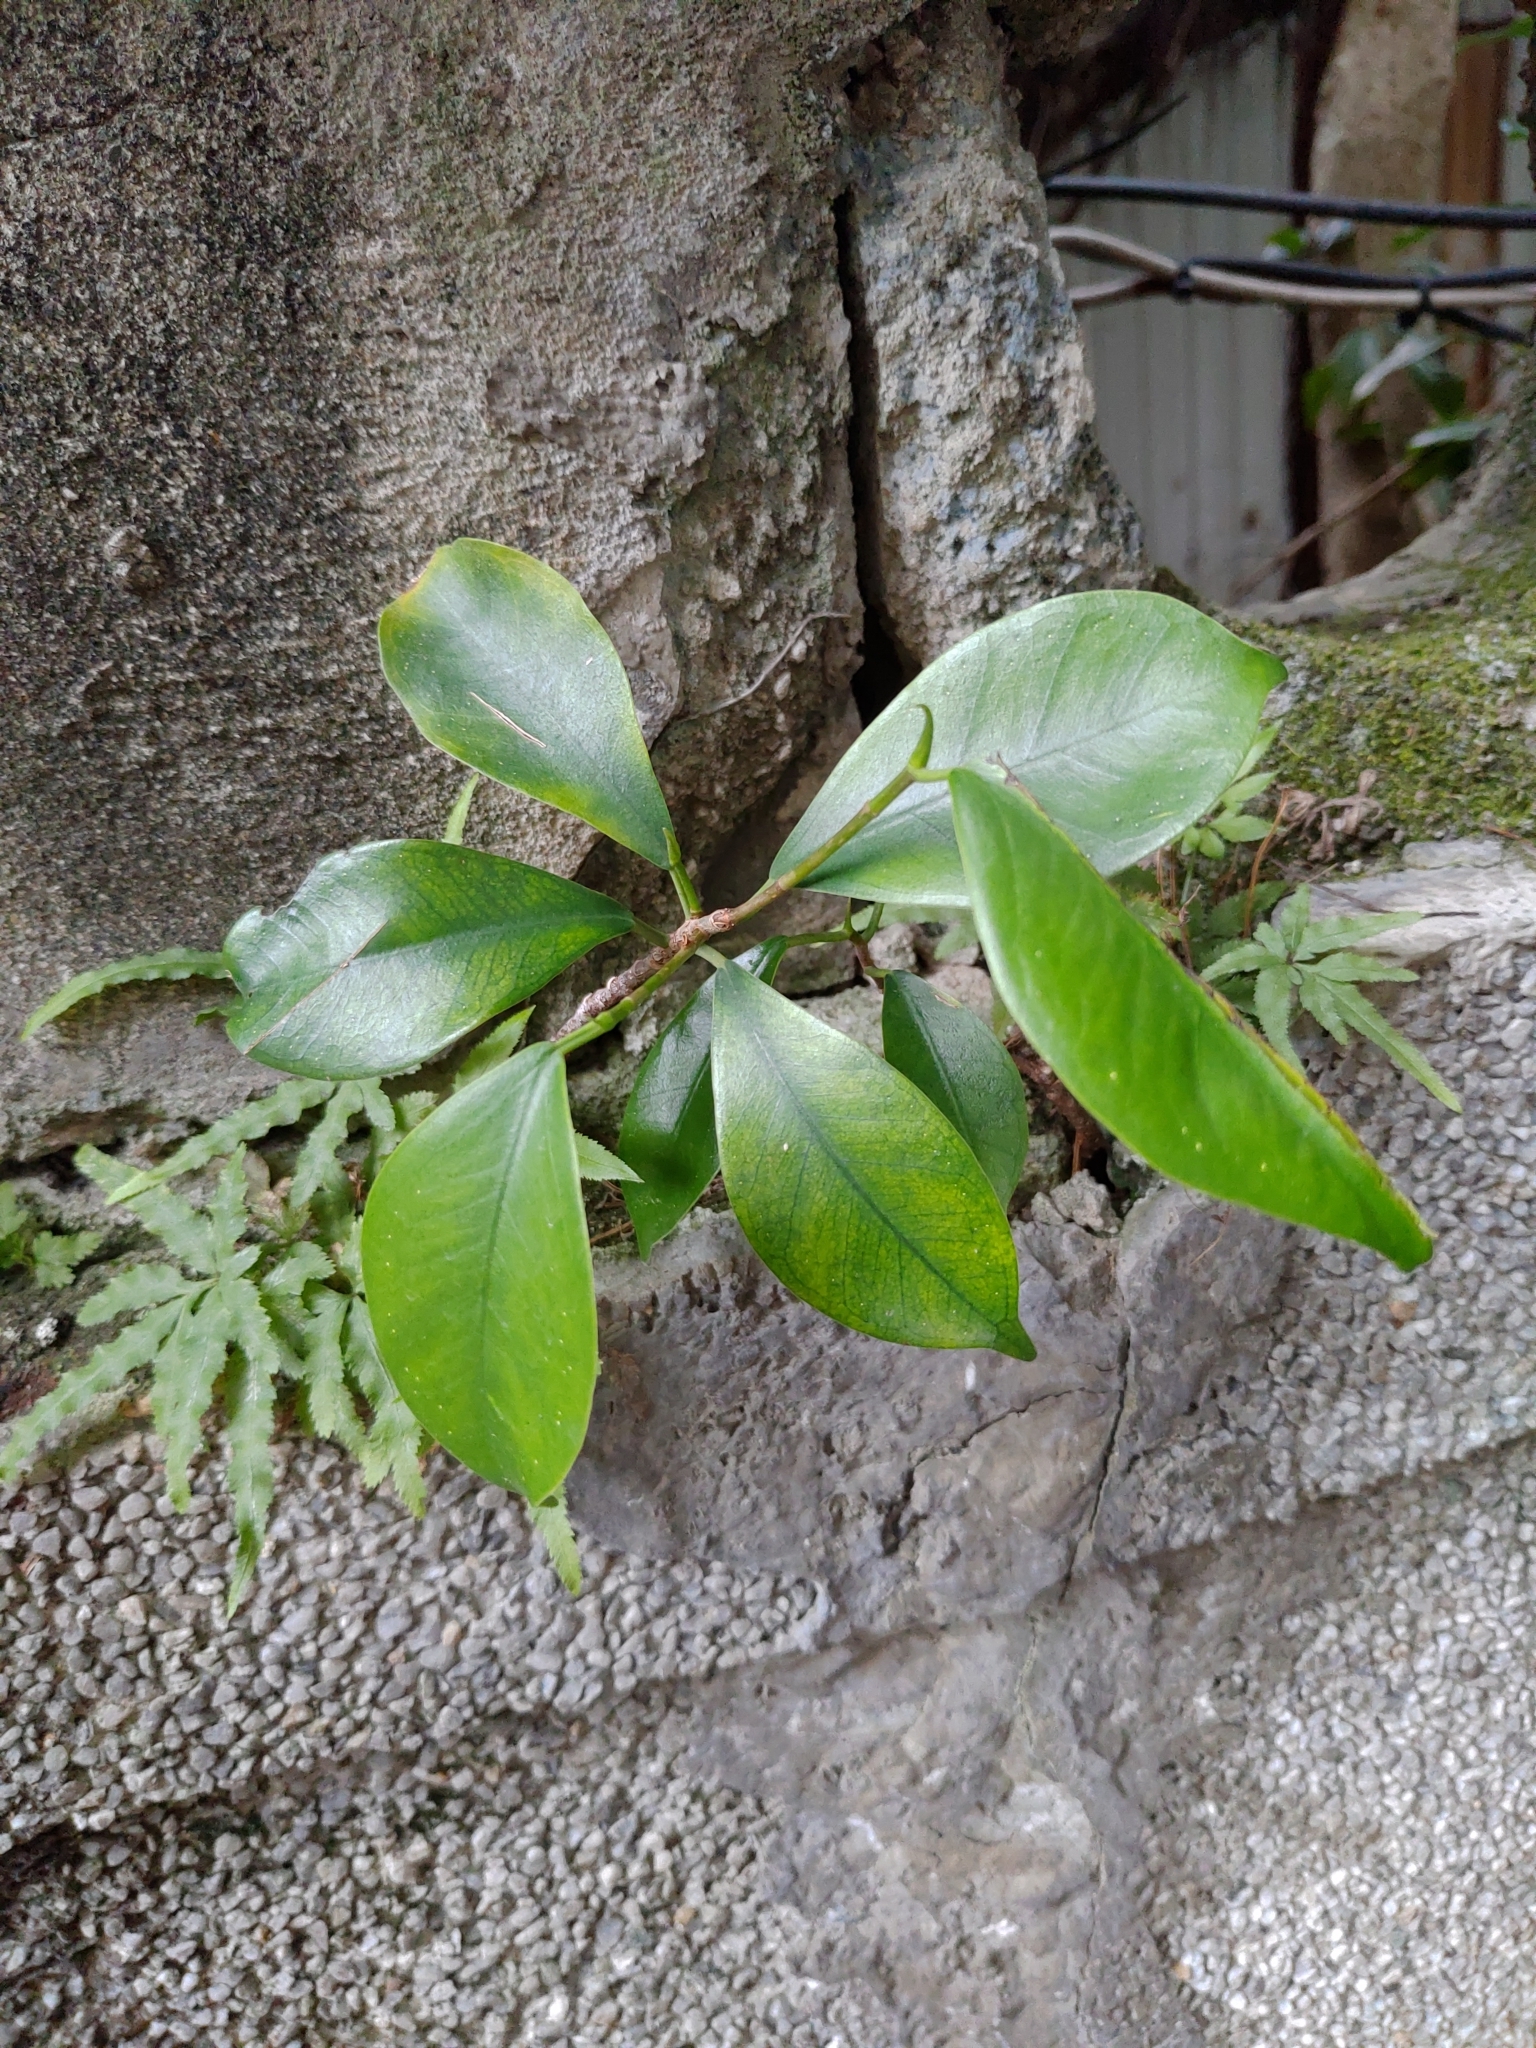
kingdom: Plantae
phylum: Tracheophyta
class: Magnoliopsida
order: Rosales
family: Moraceae
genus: Ficus
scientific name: Ficus microcarpa
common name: Chinese banyan
